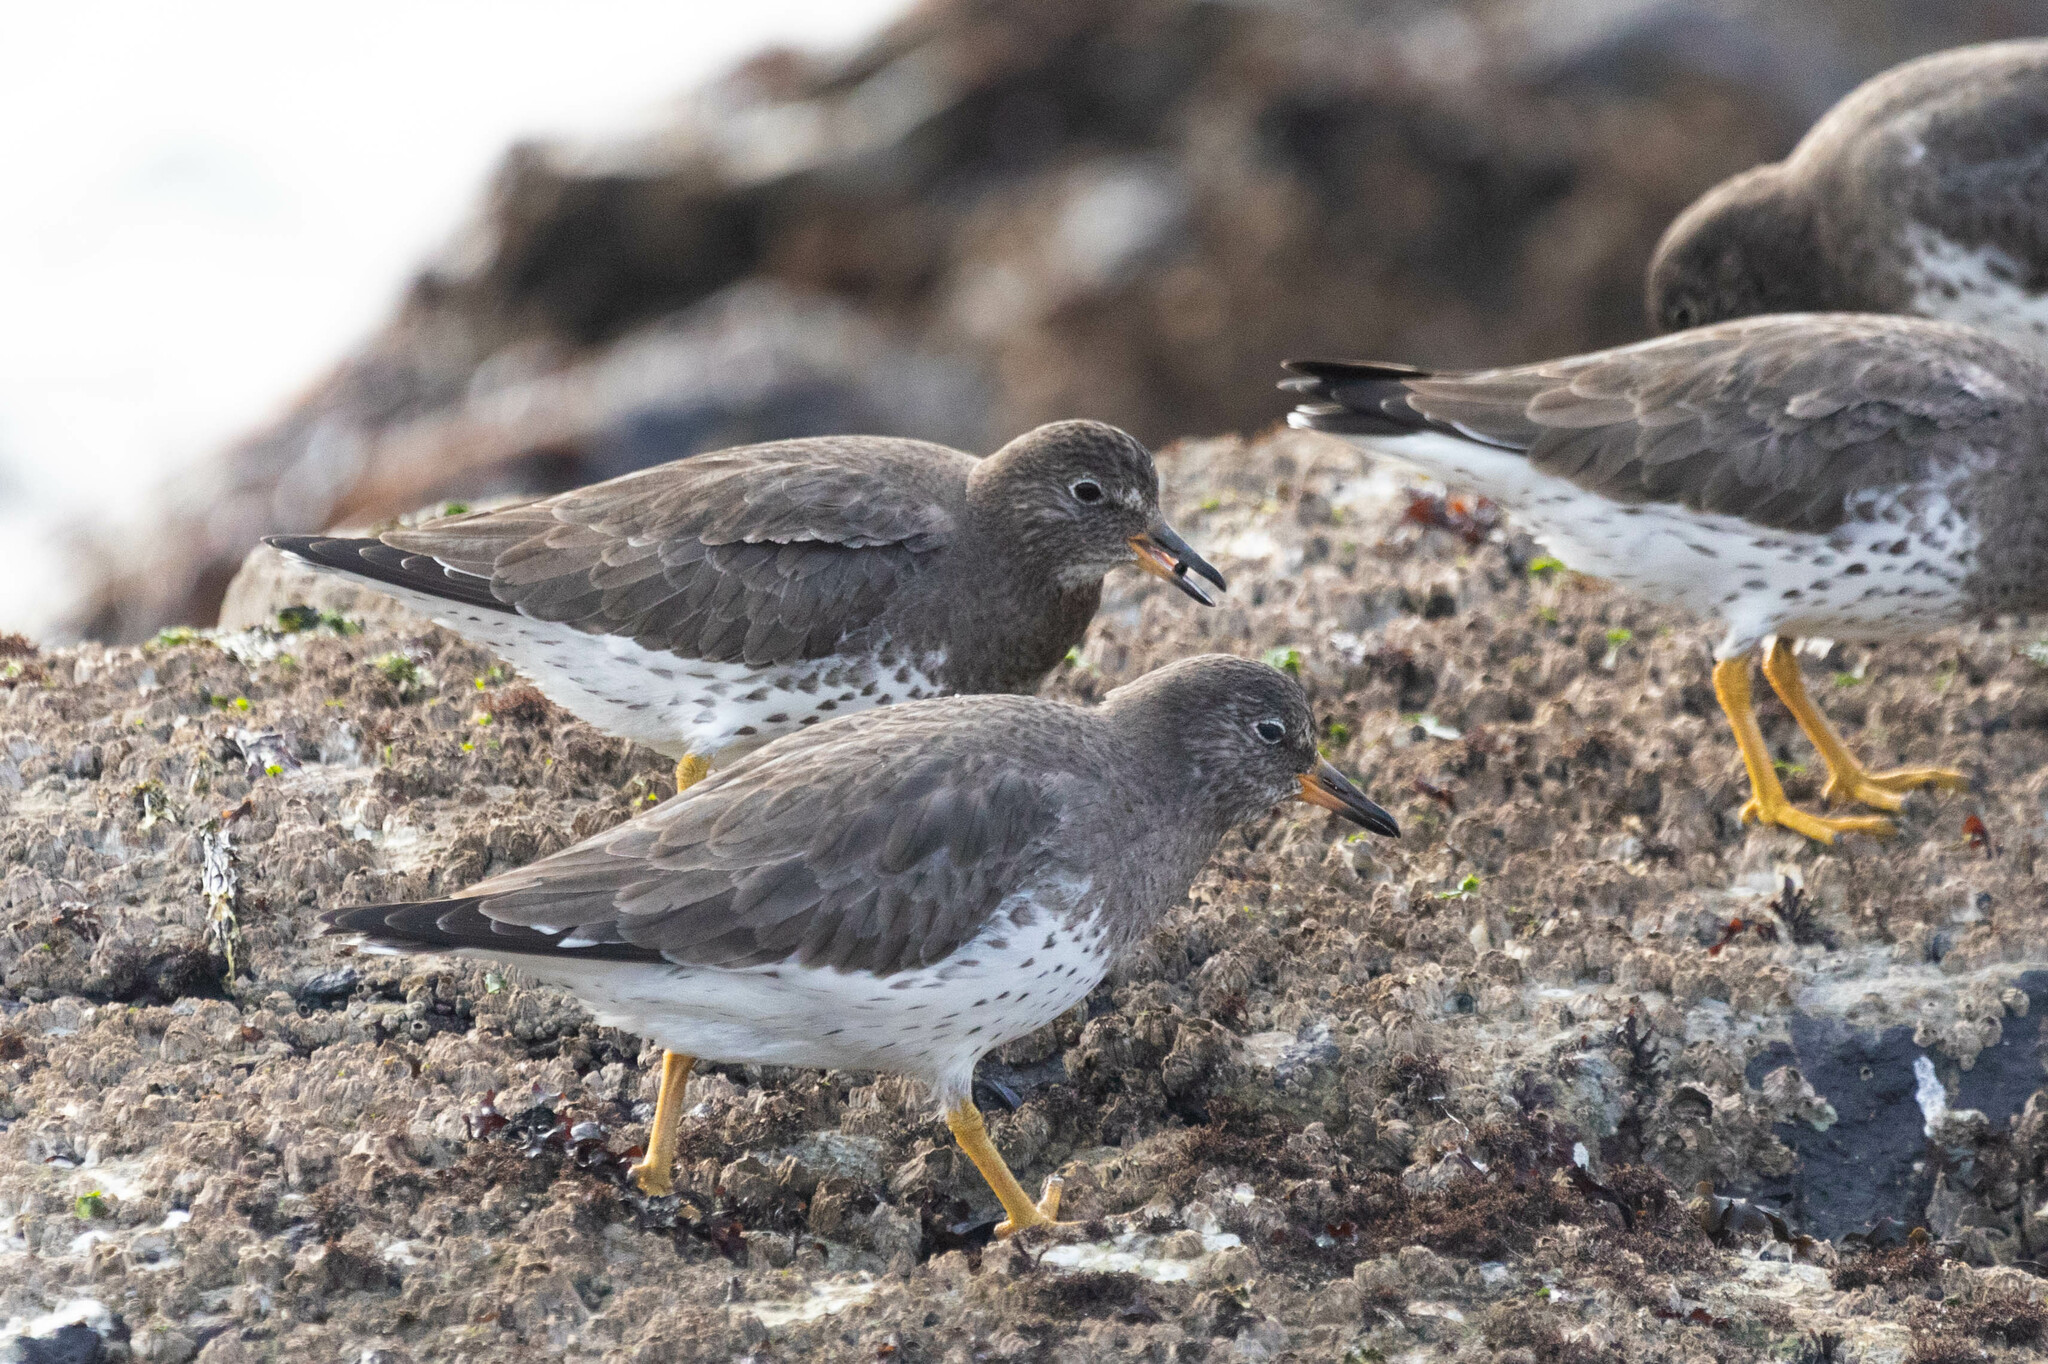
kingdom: Animalia
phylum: Chordata
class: Aves
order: Charadriiformes
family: Scolopacidae
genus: Calidris
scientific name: Calidris virgata
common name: Surfbird
